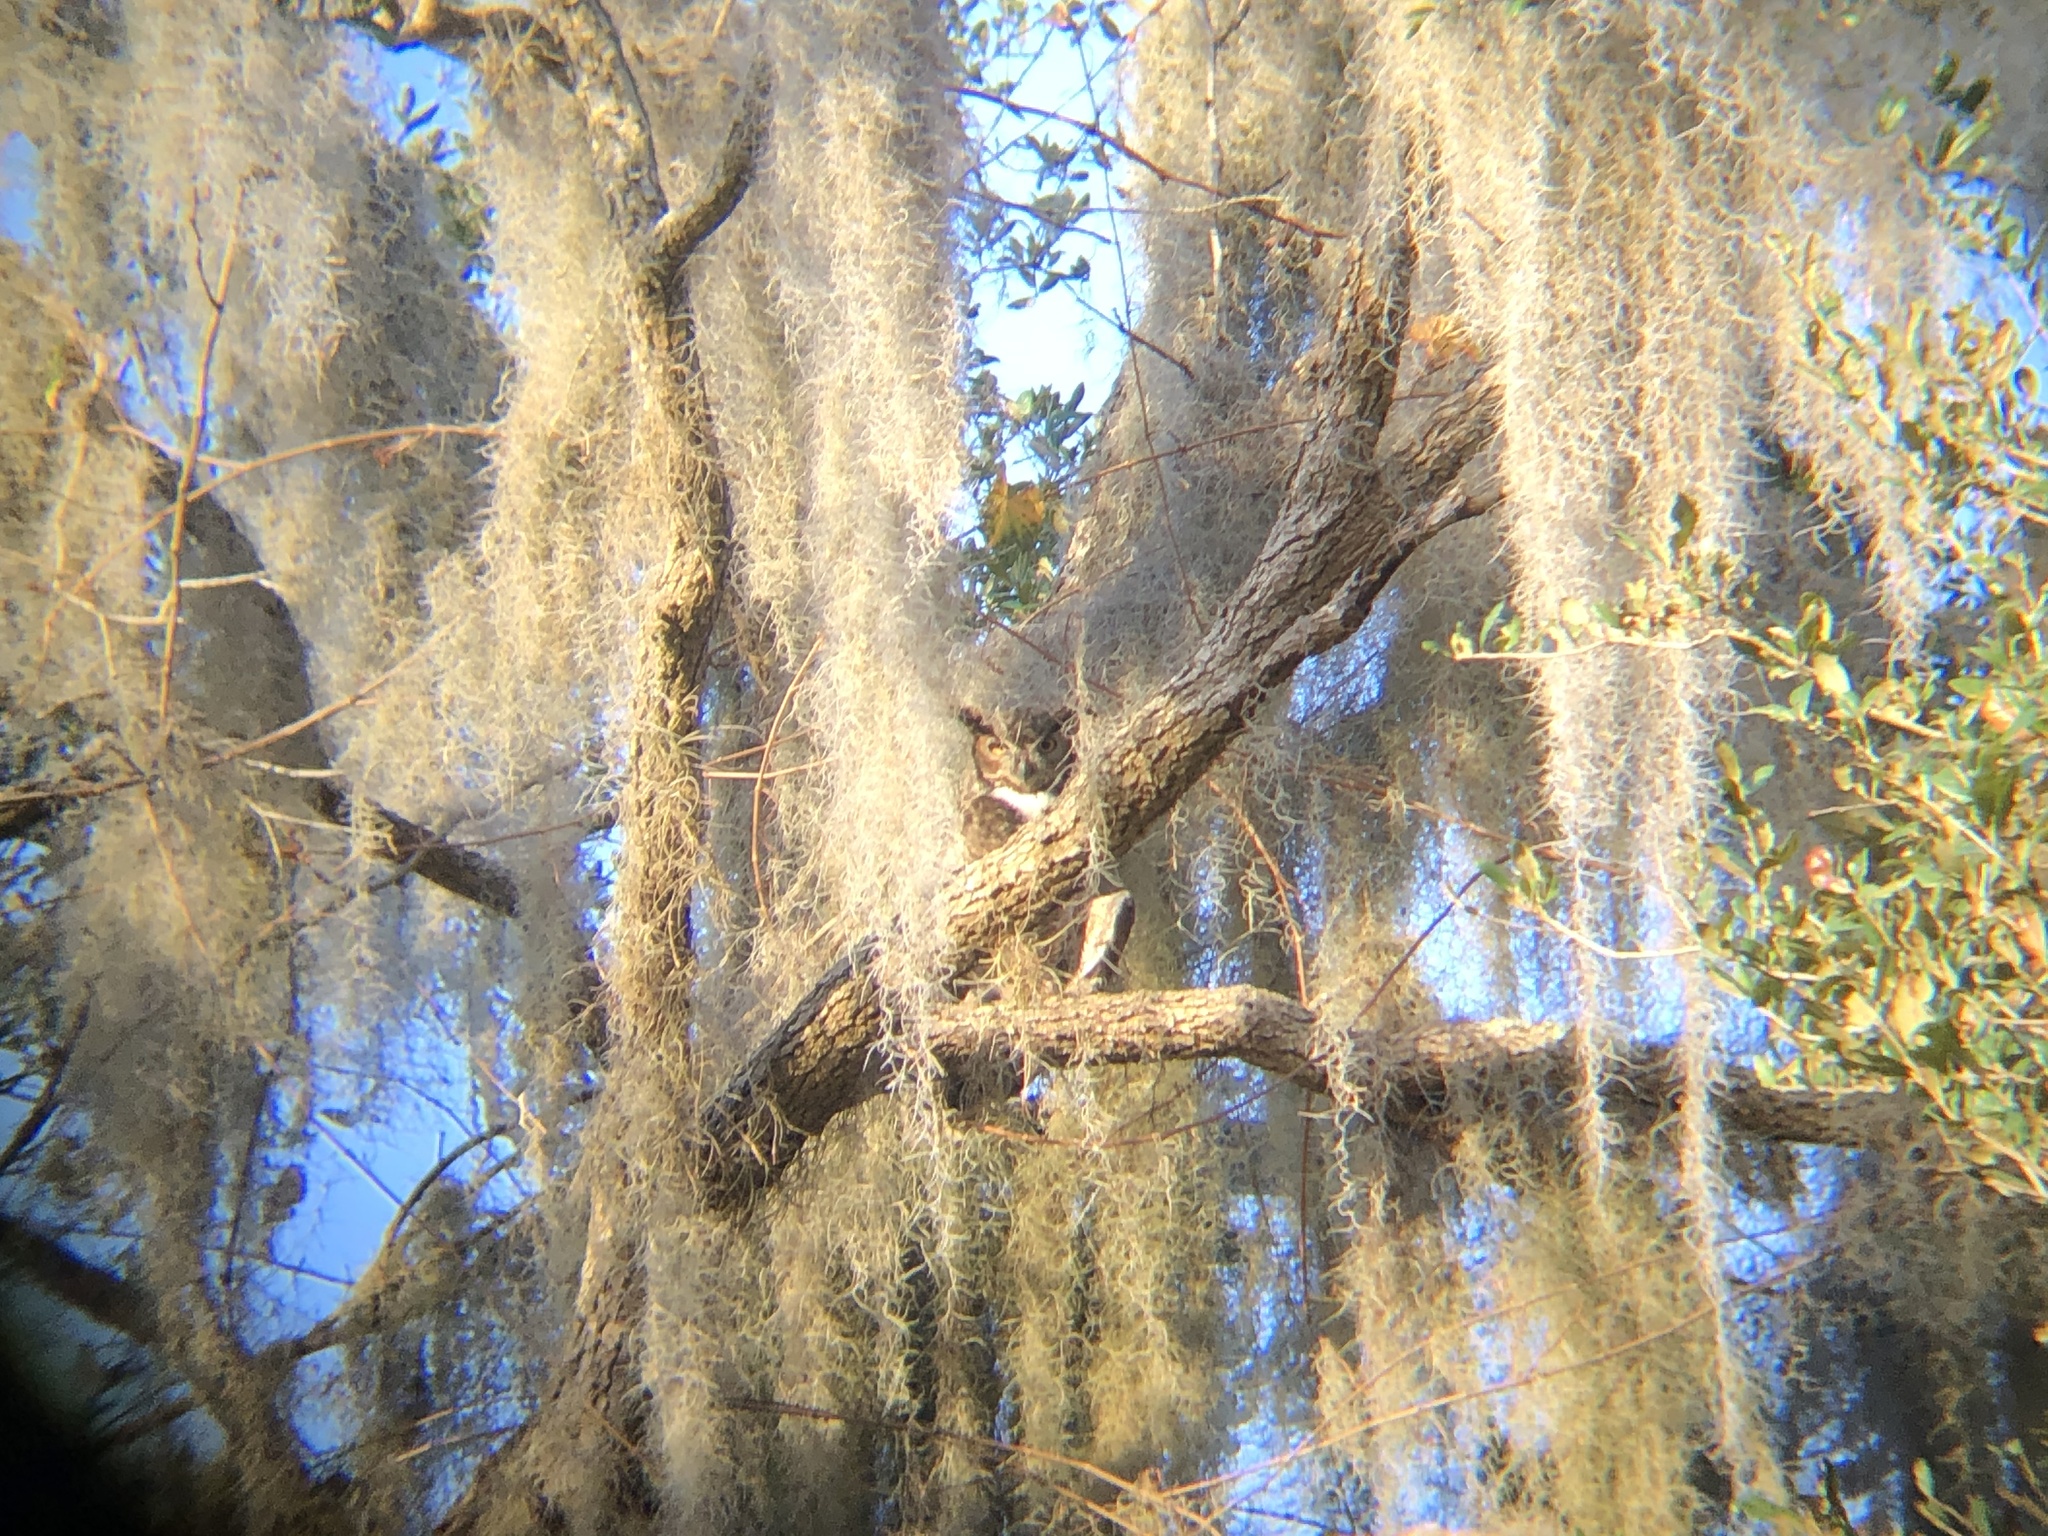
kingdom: Animalia
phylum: Chordata
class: Aves
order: Strigiformes
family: Strigidae
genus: Bubo
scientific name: Bubo virginianus
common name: Great horned owl
